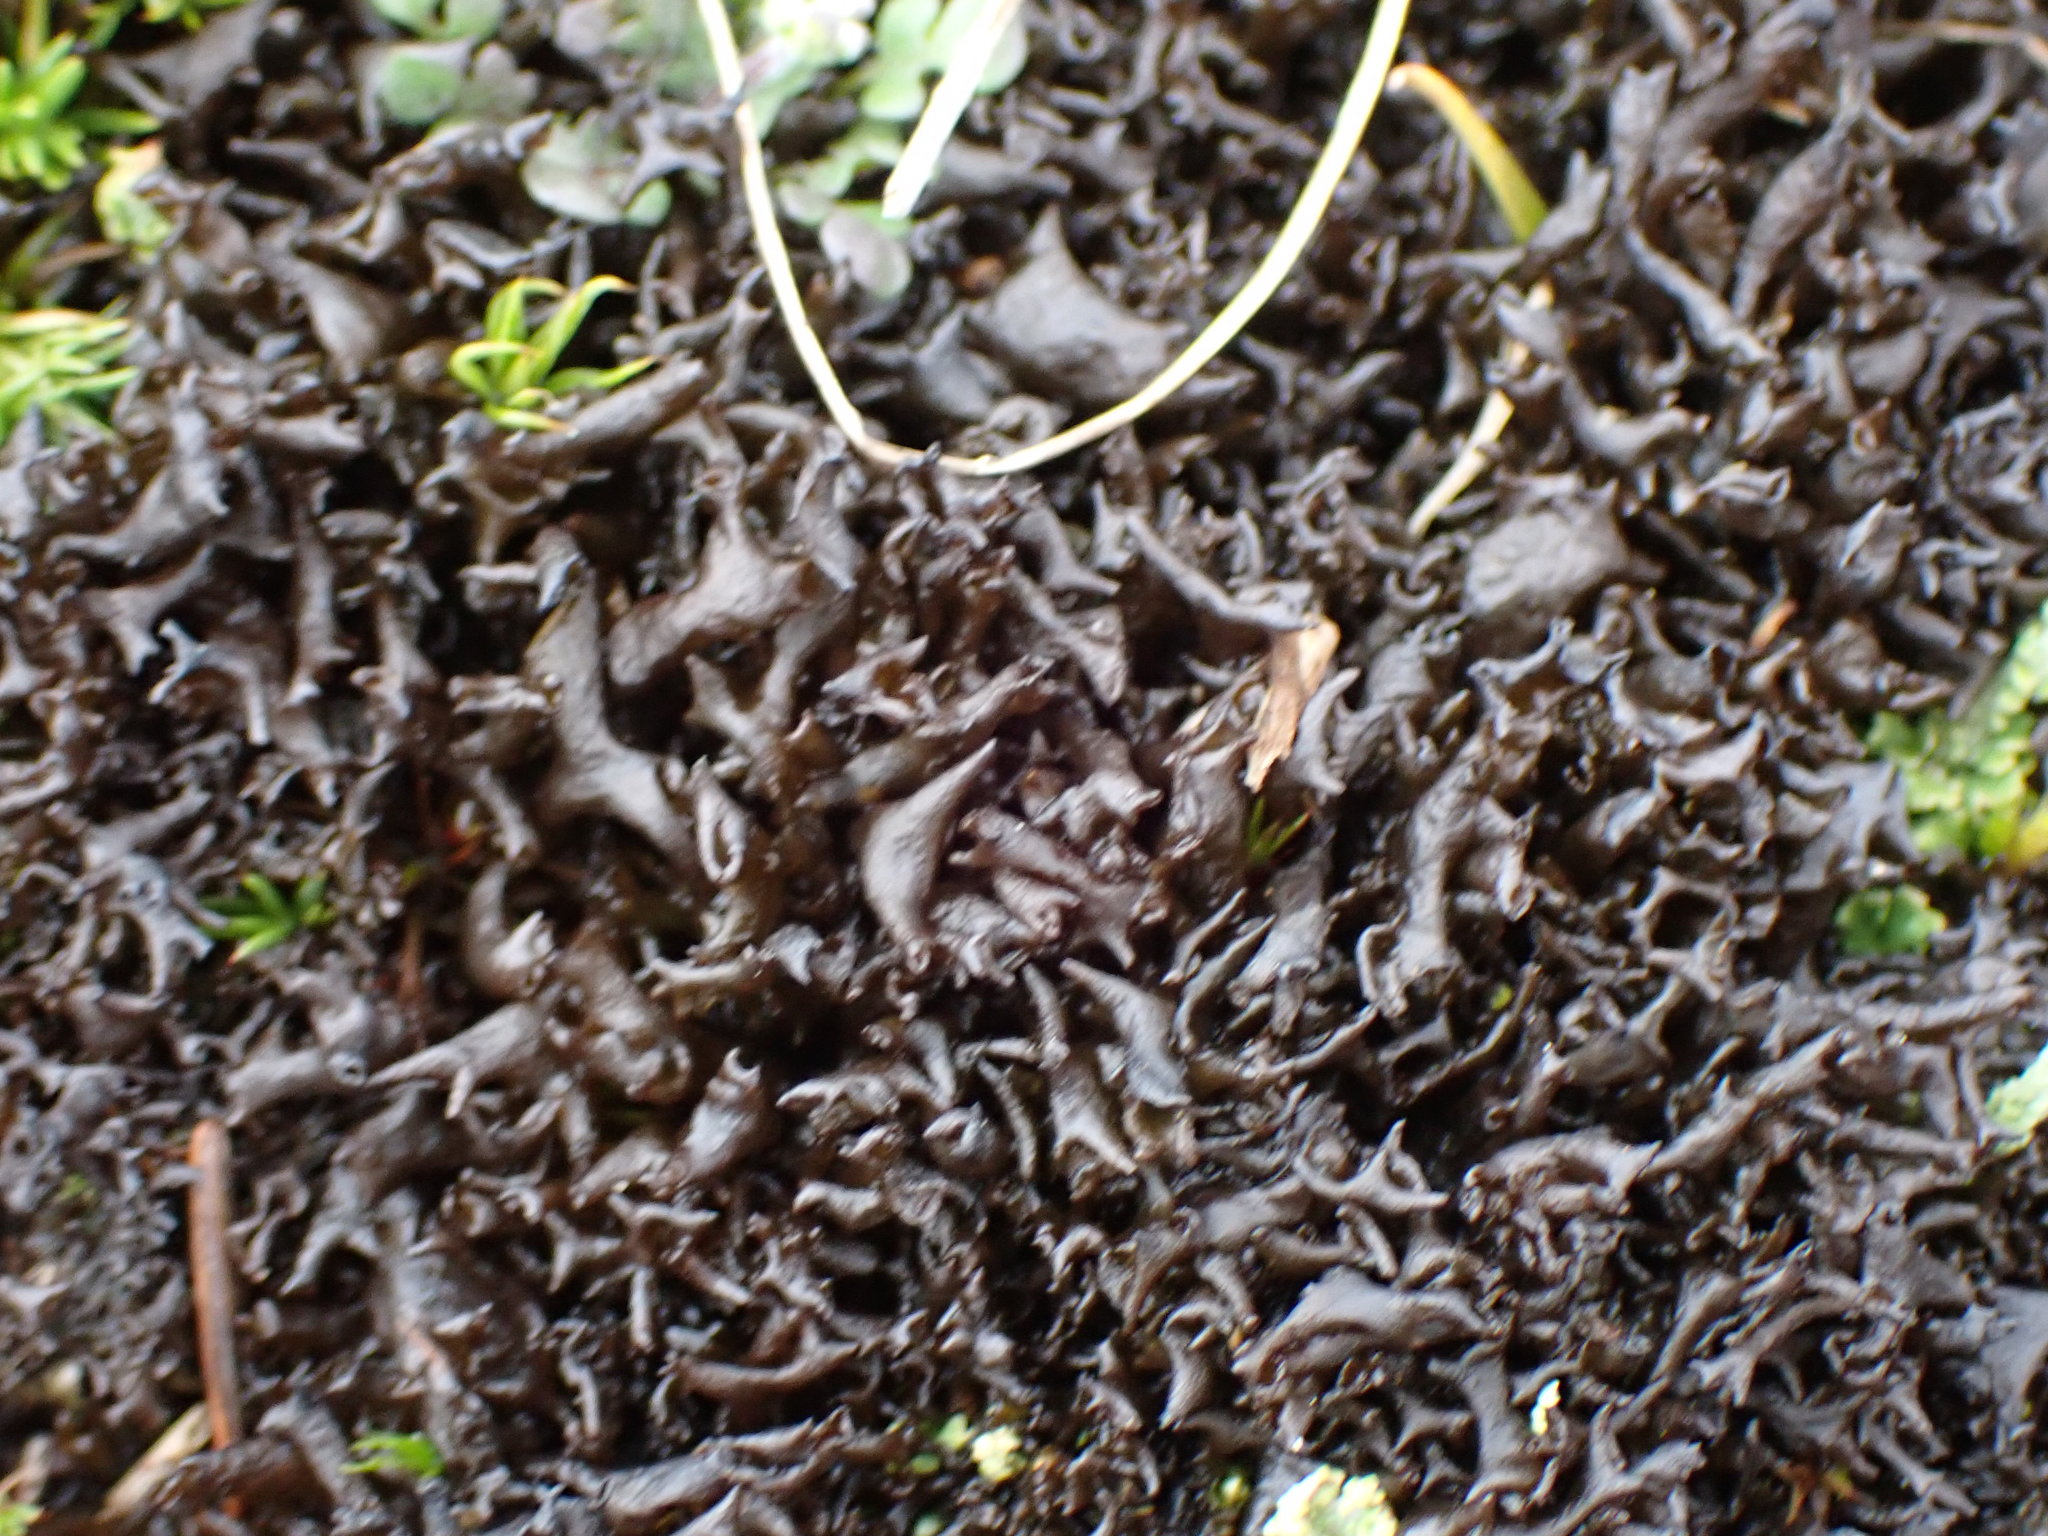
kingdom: Fungi
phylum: Ascomycota
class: Lecanoromycetes
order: Peltigerales
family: Collemataceae
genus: Scytinium
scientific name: Scytinium palmatum
